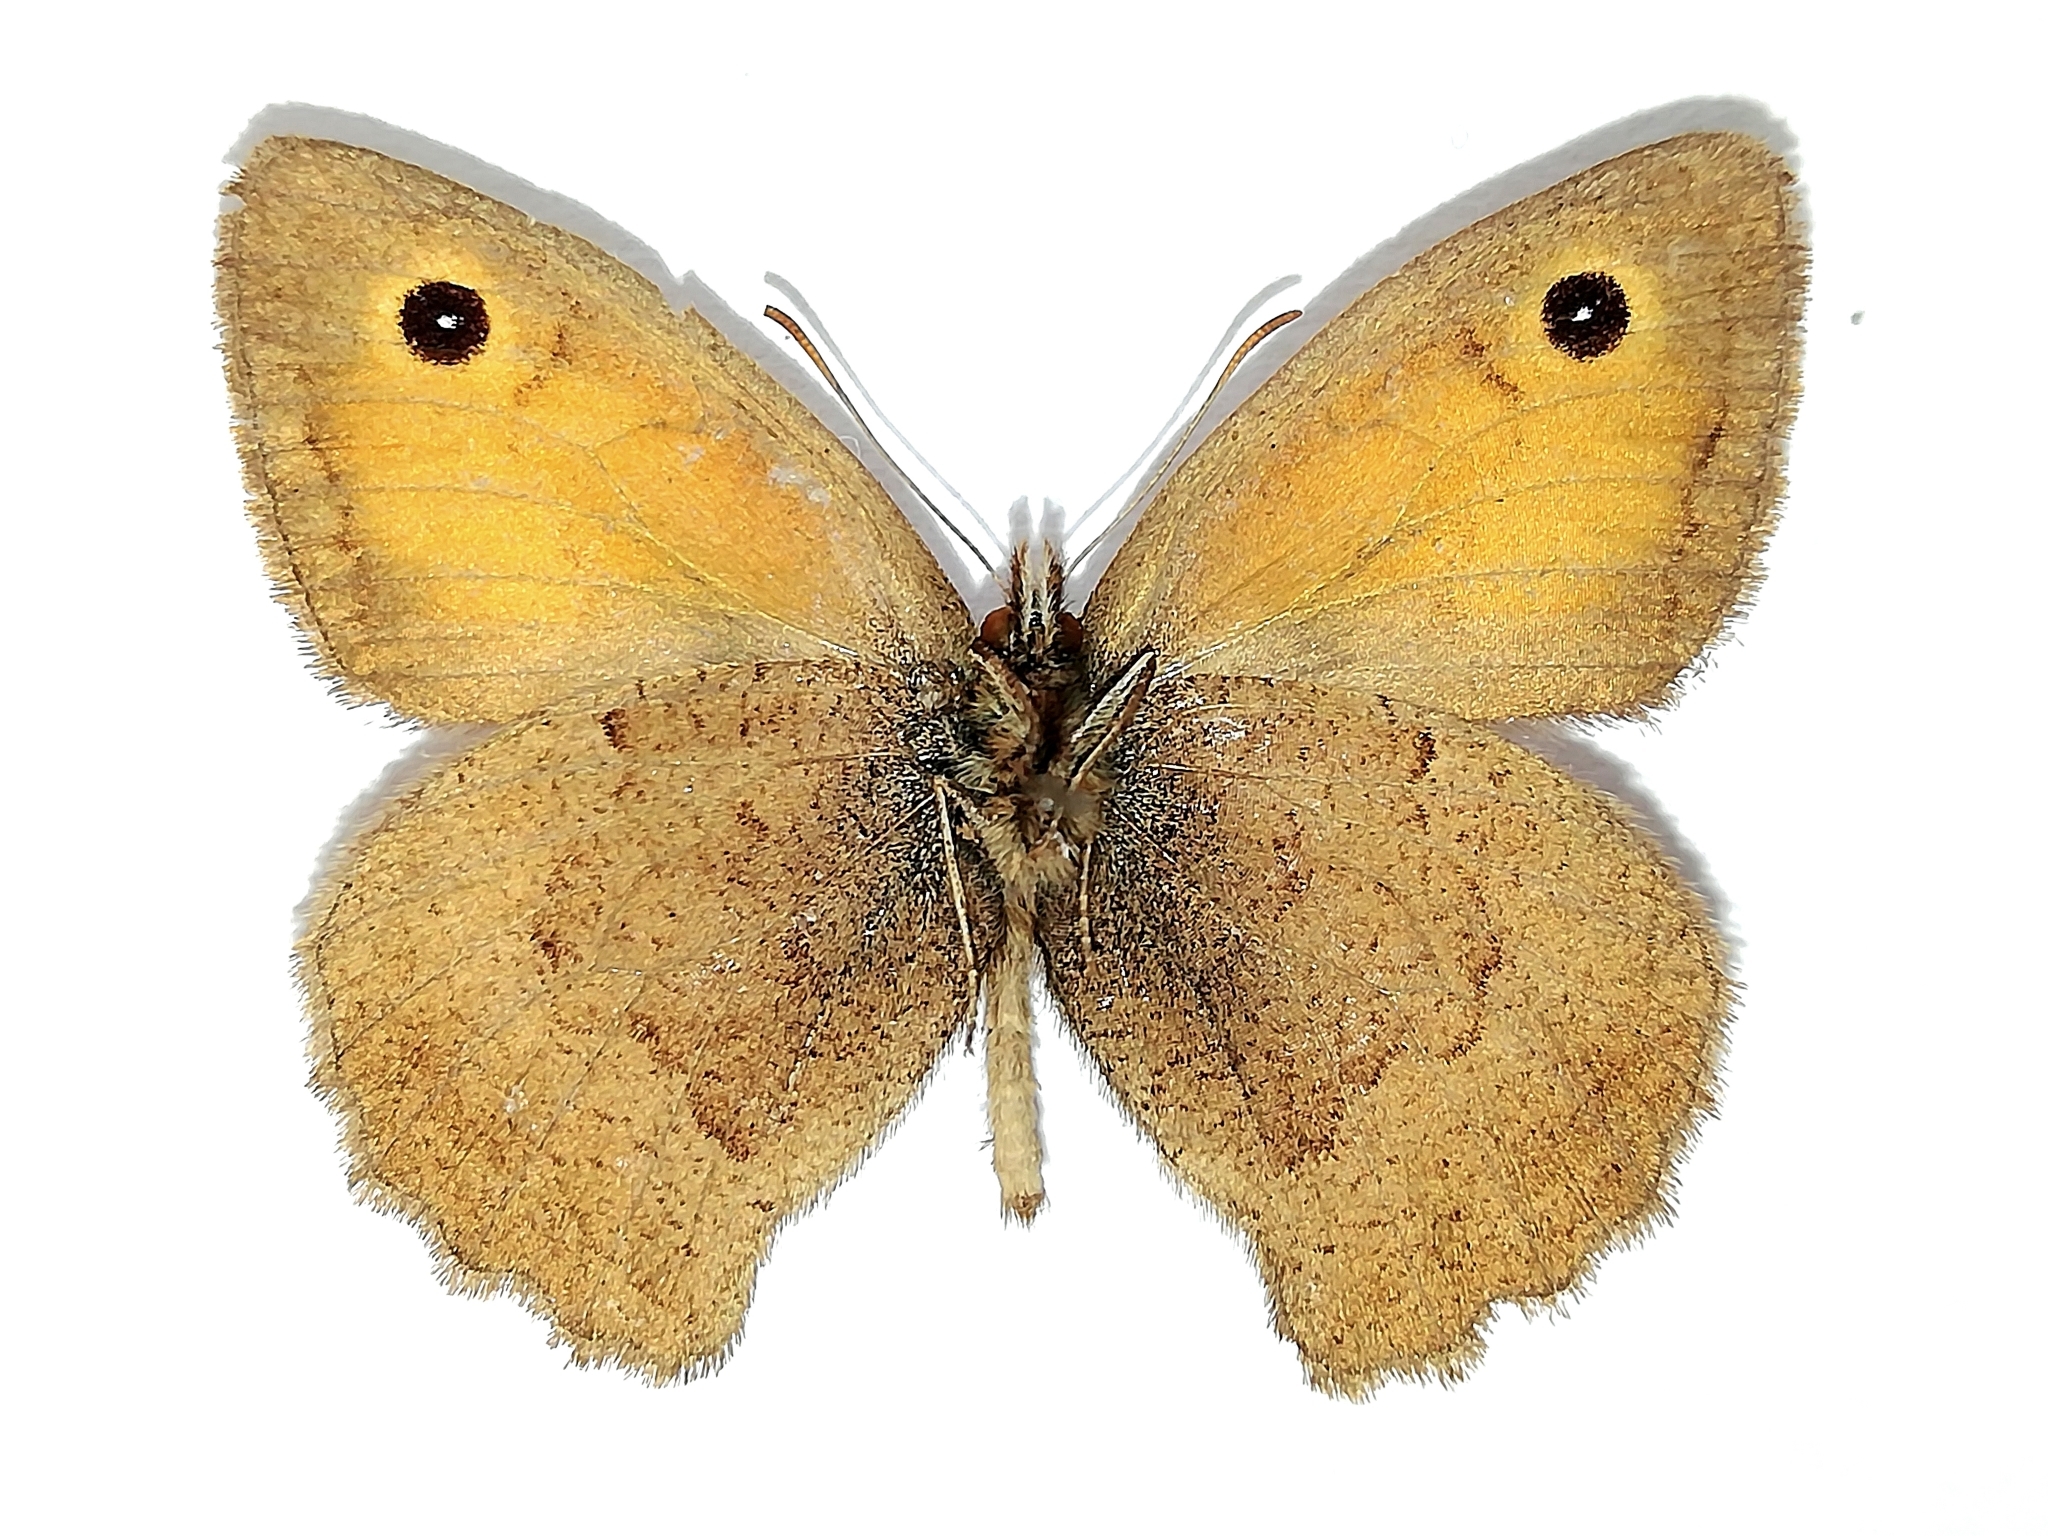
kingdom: Animalia
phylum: Arthropoda
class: Insecta
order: Lepidoptera
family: Nymphalidae
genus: Hyponephele
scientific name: Hyponephele lycaon
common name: Dusky meadow brown
